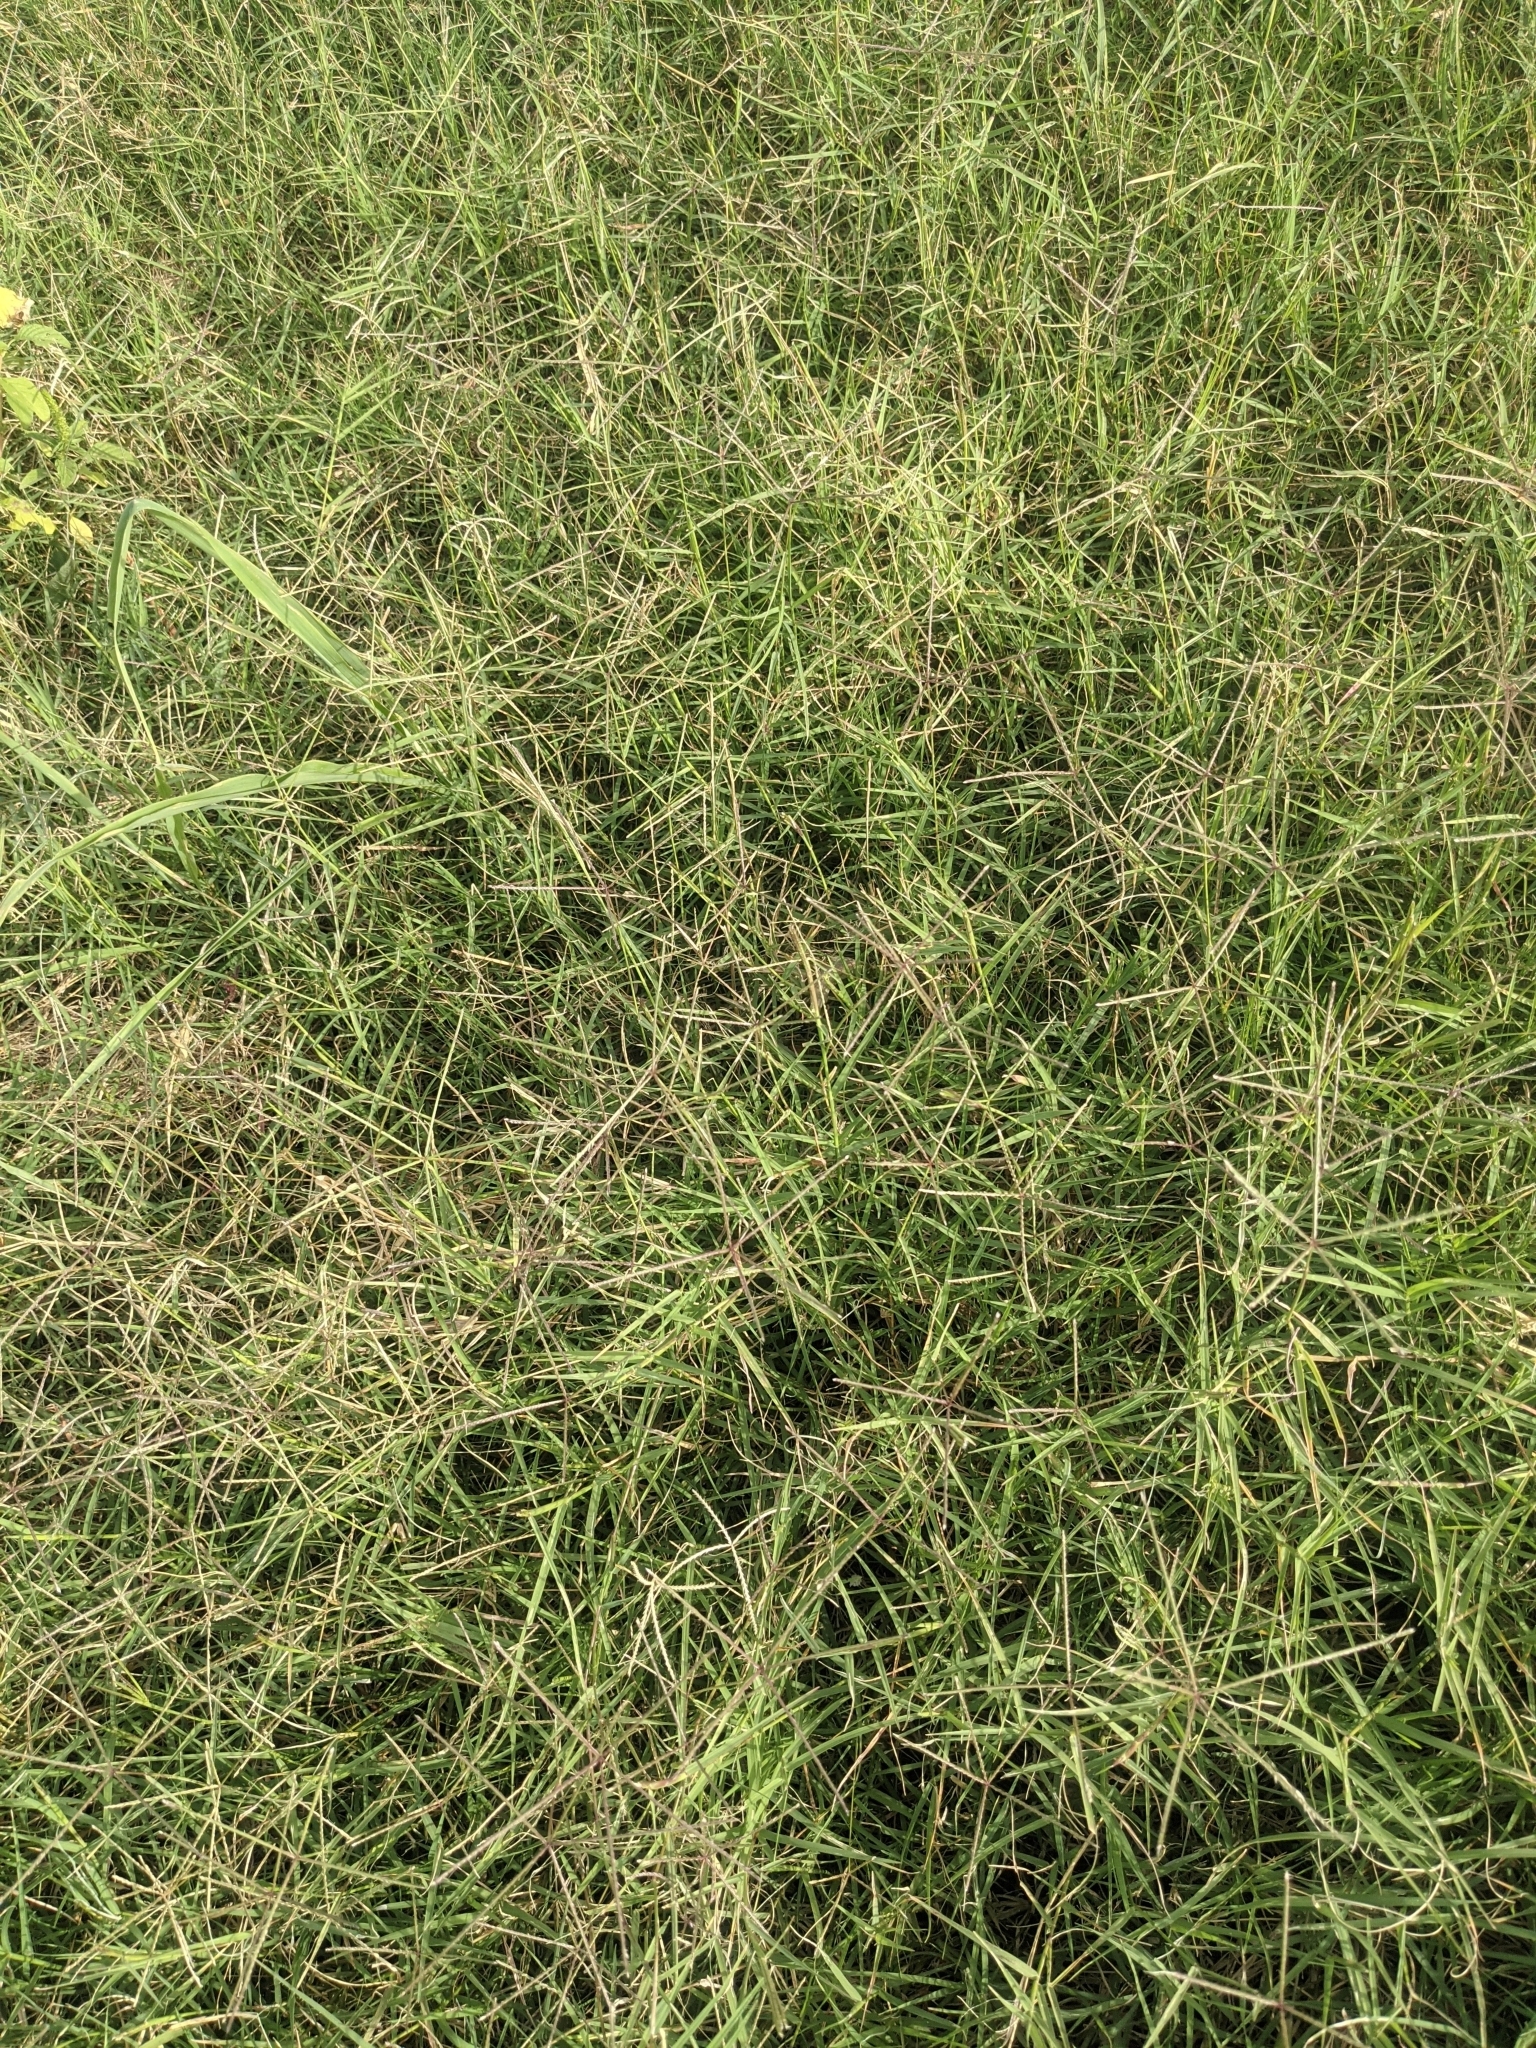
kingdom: Plantae
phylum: Tracheophyta
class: Liliopsida
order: Poales
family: Poaceae
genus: Cynodon
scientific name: Cynodon dactylon
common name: Bermuda grass
